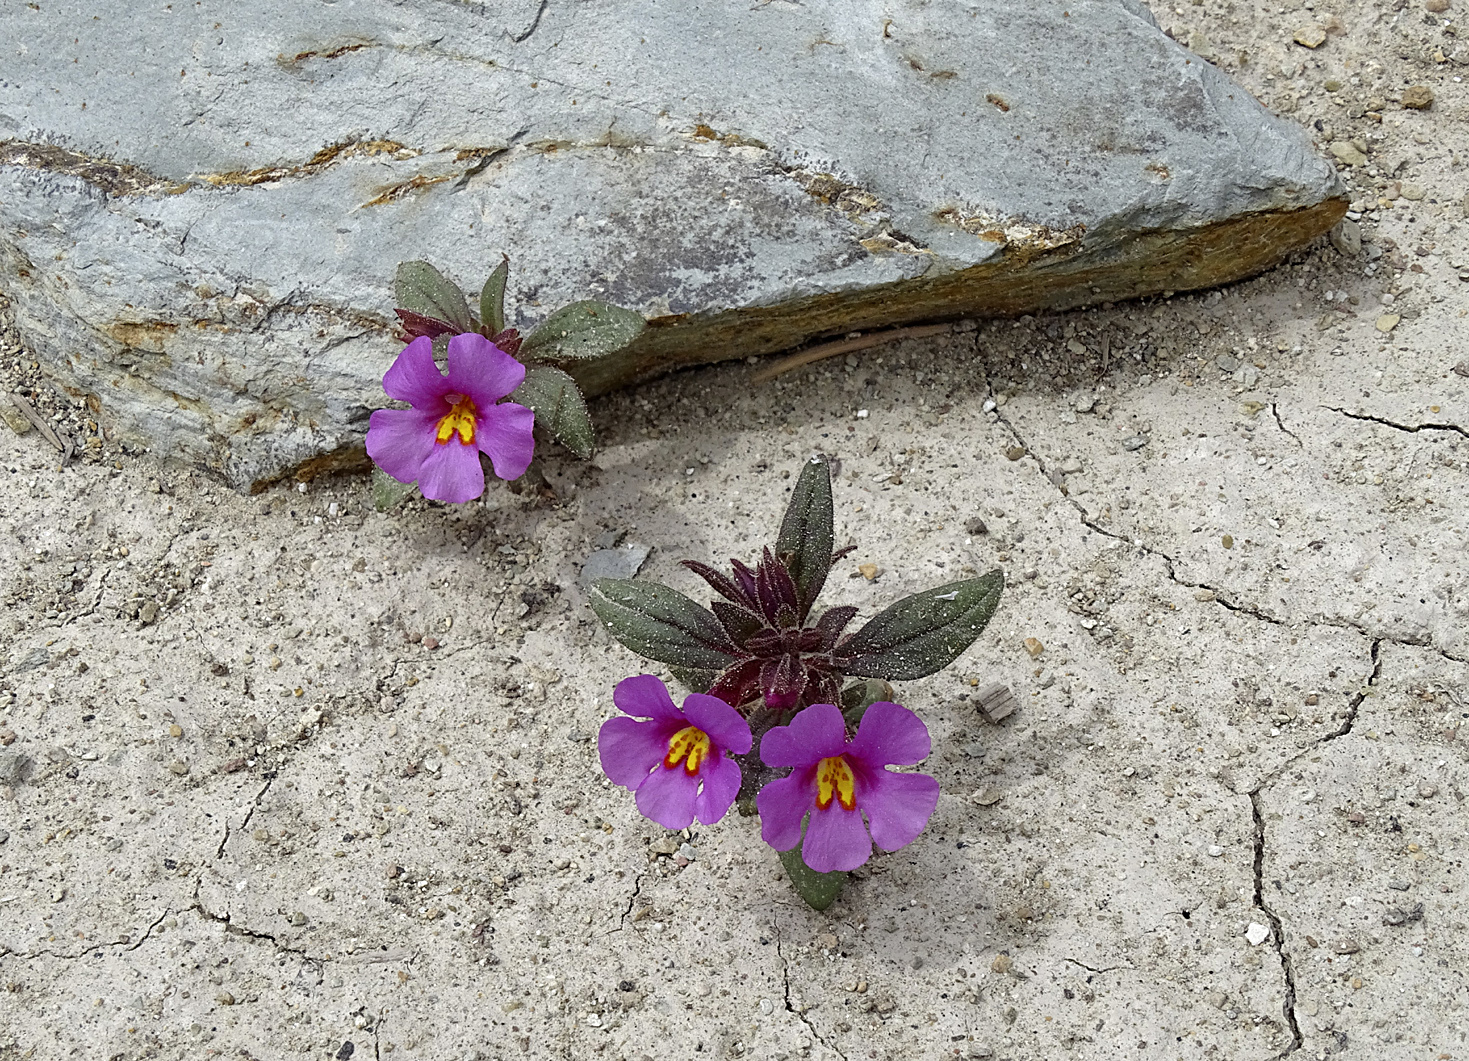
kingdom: Plantae
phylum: Tracheophyta
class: Magnoliopsida
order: Lamiales
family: Phrymaceae
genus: Diplacus
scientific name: Diplacus parryi
